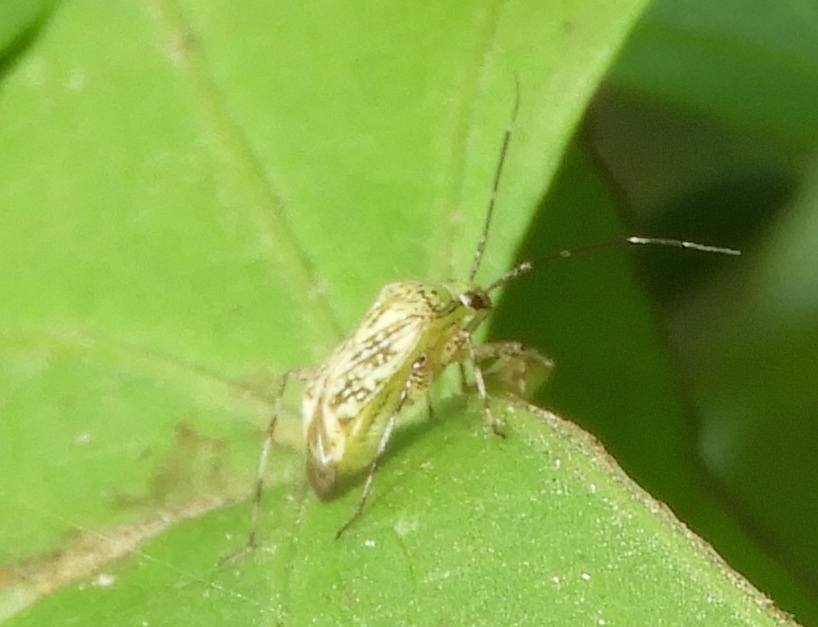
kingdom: Animalia
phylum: Arthropoda
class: Insecta
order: Hemiptera
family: Miridae
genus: Taedia
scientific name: Taedia marmorata
